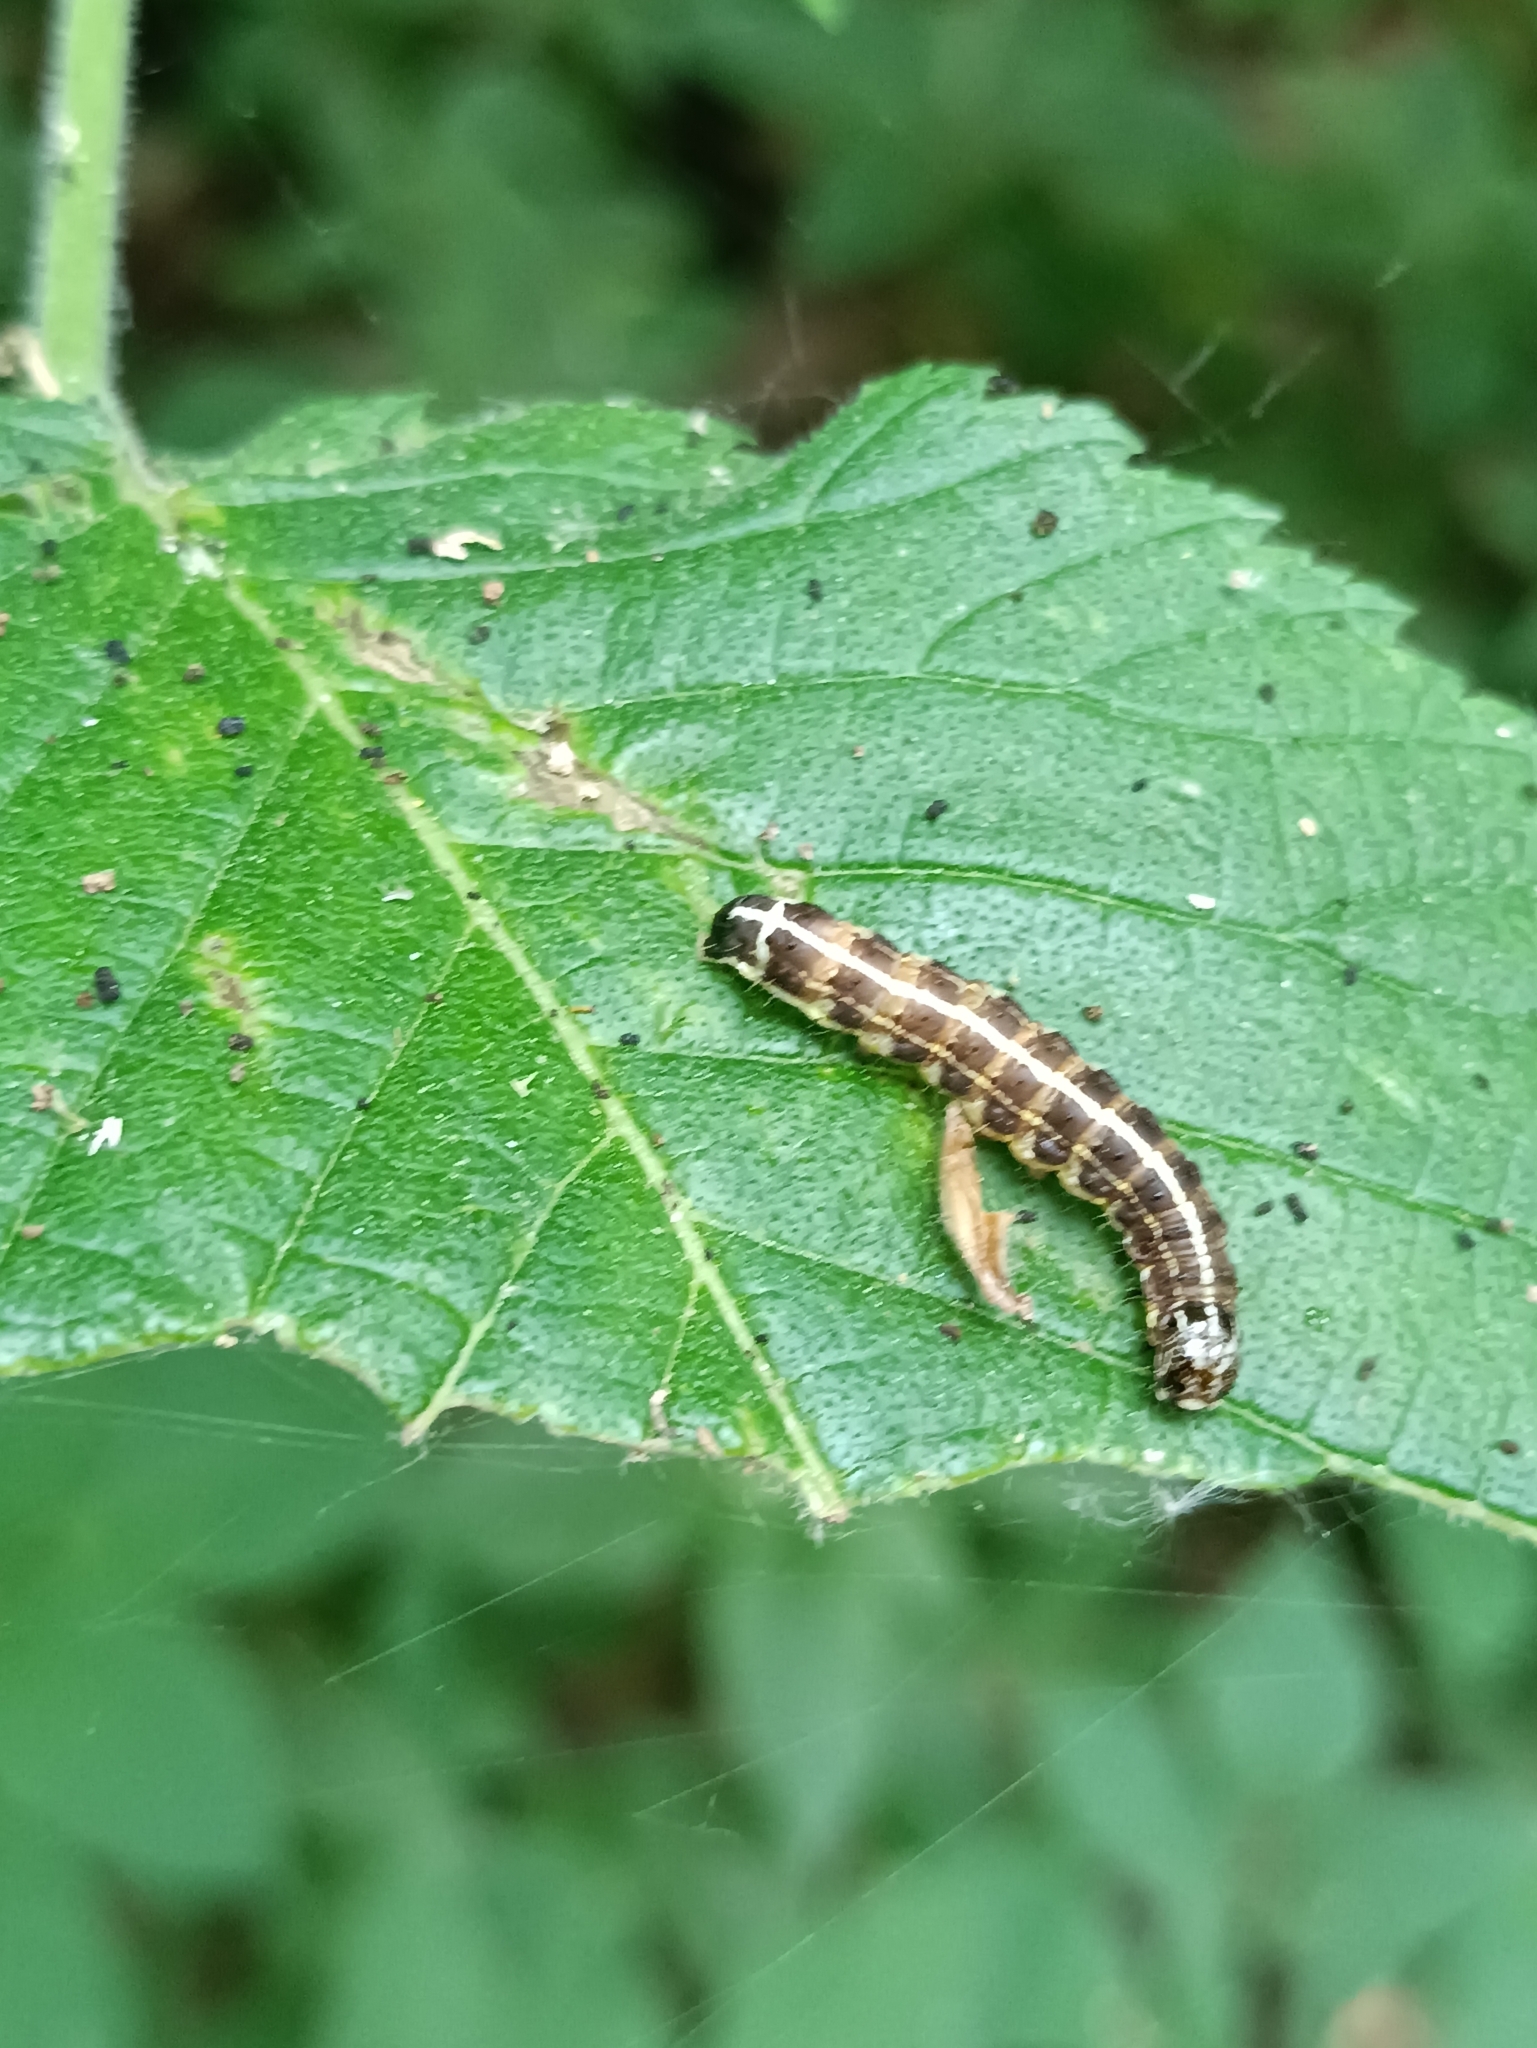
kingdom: Animalia
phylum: Arthropoda
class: Insecta
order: Lepidoptera
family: Noctuidae
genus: Orthosia
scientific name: Orthosia cruda
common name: Small quaker
